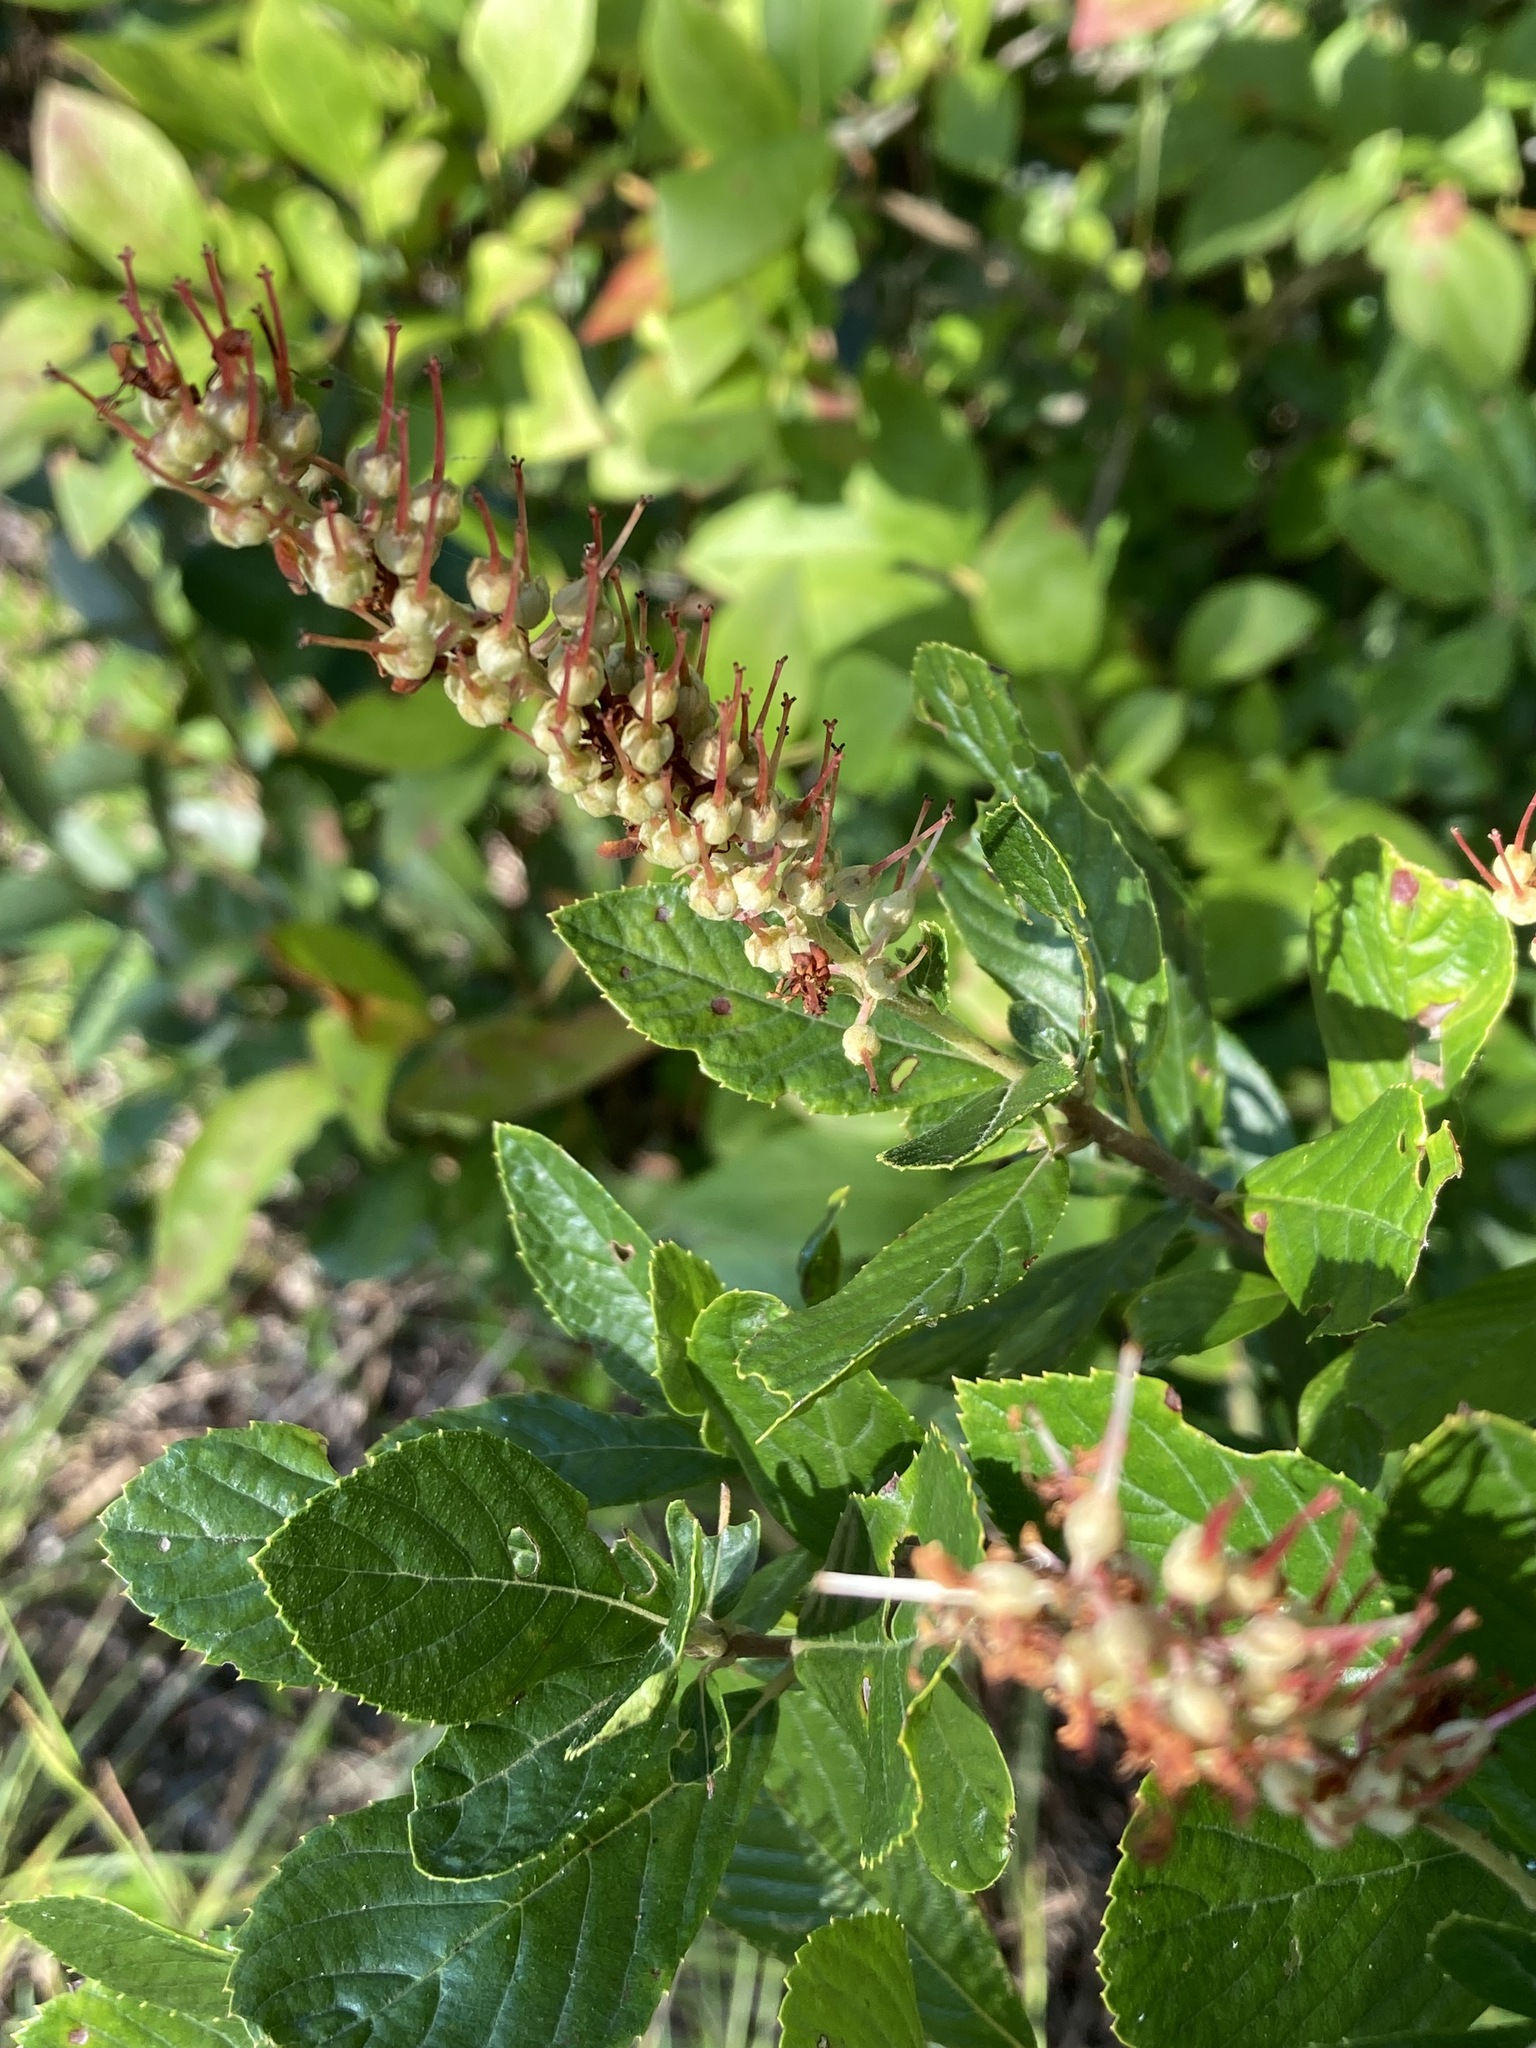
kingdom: Plantae
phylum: Tracheophyta
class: Magnoliopsida
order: Ericales
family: Clethraceae
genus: Clethra
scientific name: Clethra alnifolia
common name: Sweet pepperbush
